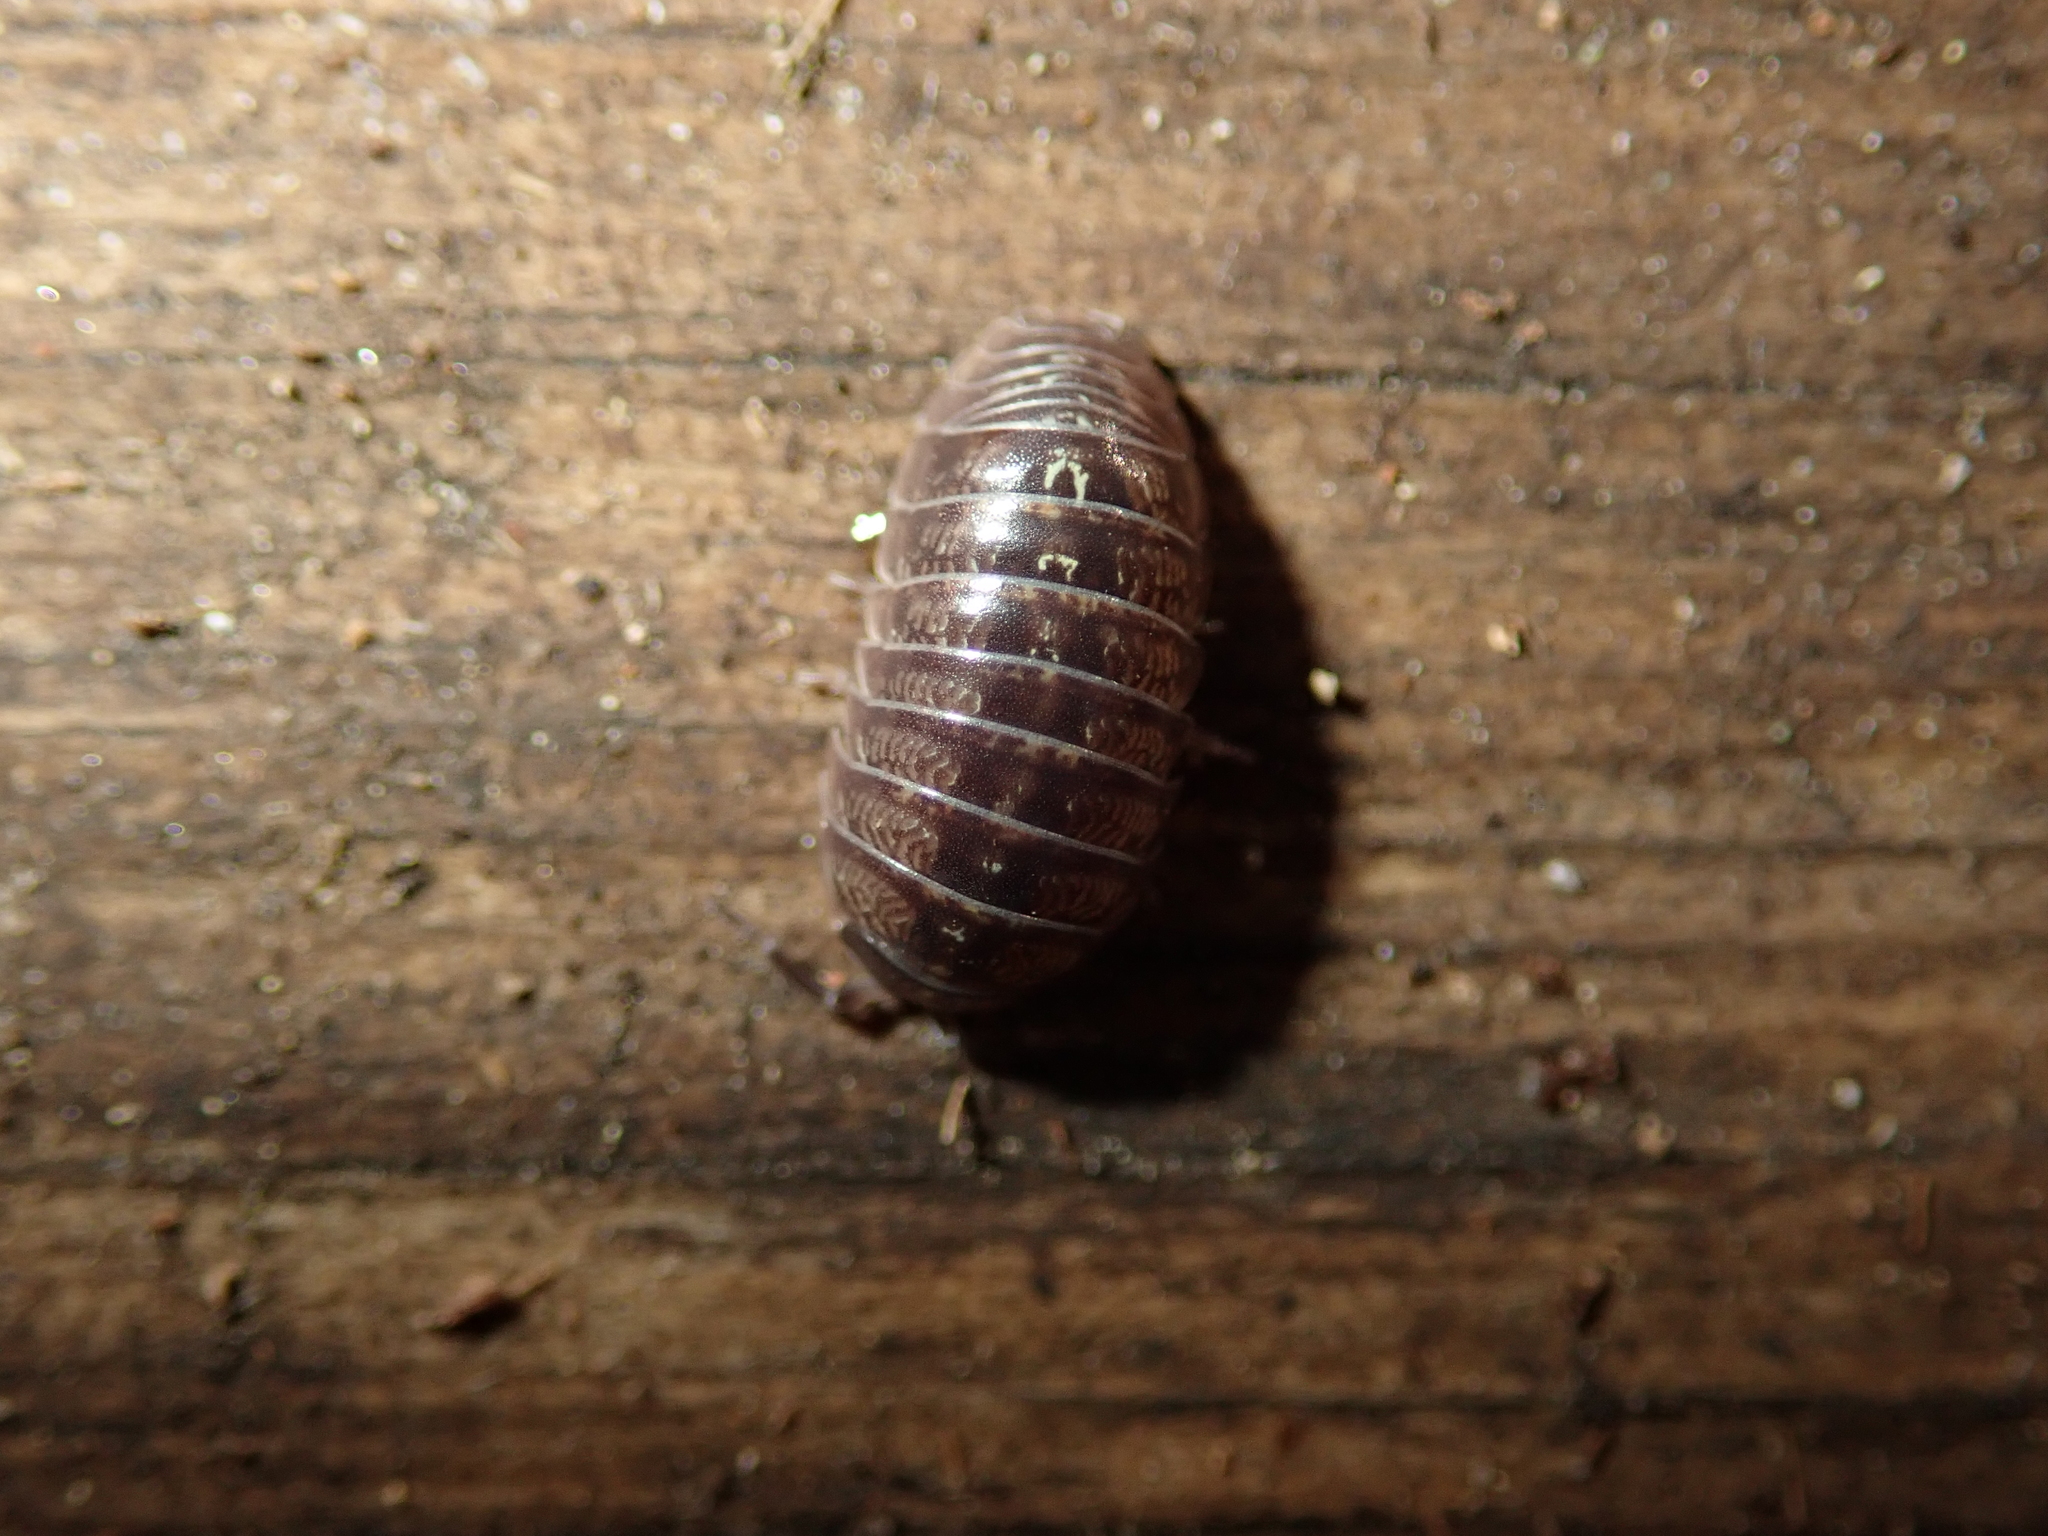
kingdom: Animalia
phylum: Arthropoda
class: Malacostraca
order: Isopoda
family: Armadillidiidae
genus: Armadillidium
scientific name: Armadillidium vulgare
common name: Common pill woodlouse
